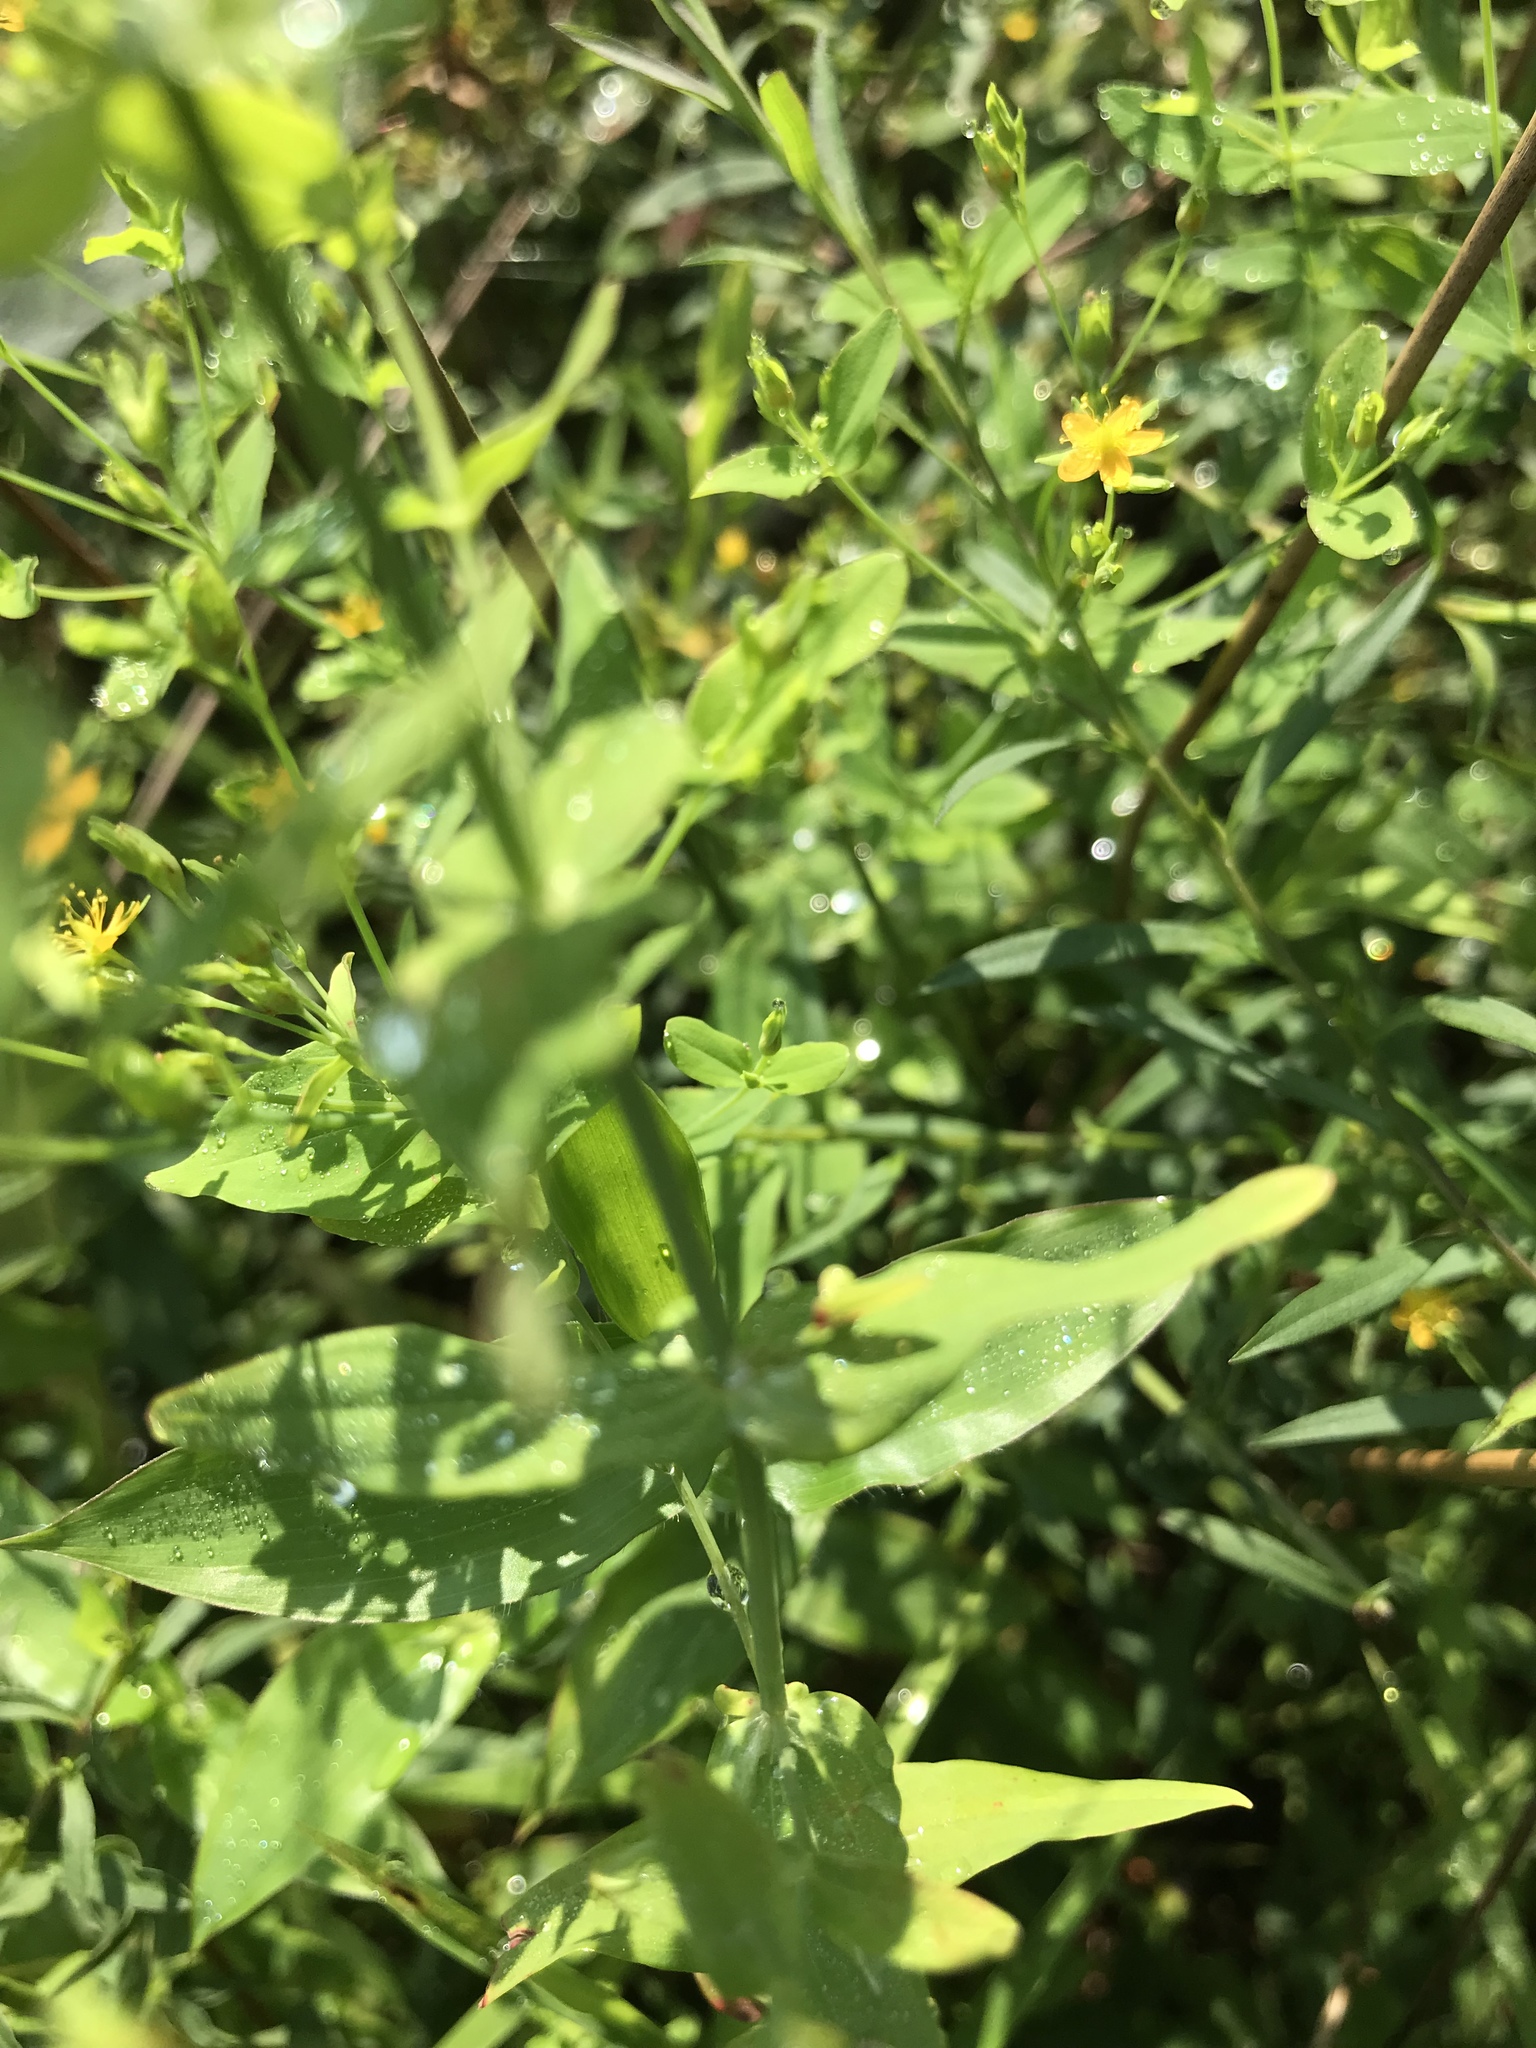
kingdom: Plantae
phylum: Tracheophyta
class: Magnoliopsida
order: Malpighiales
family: Hypericaceae
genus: Hypericum
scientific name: Hypericum mutilum
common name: Dwarf st. john's-wort
